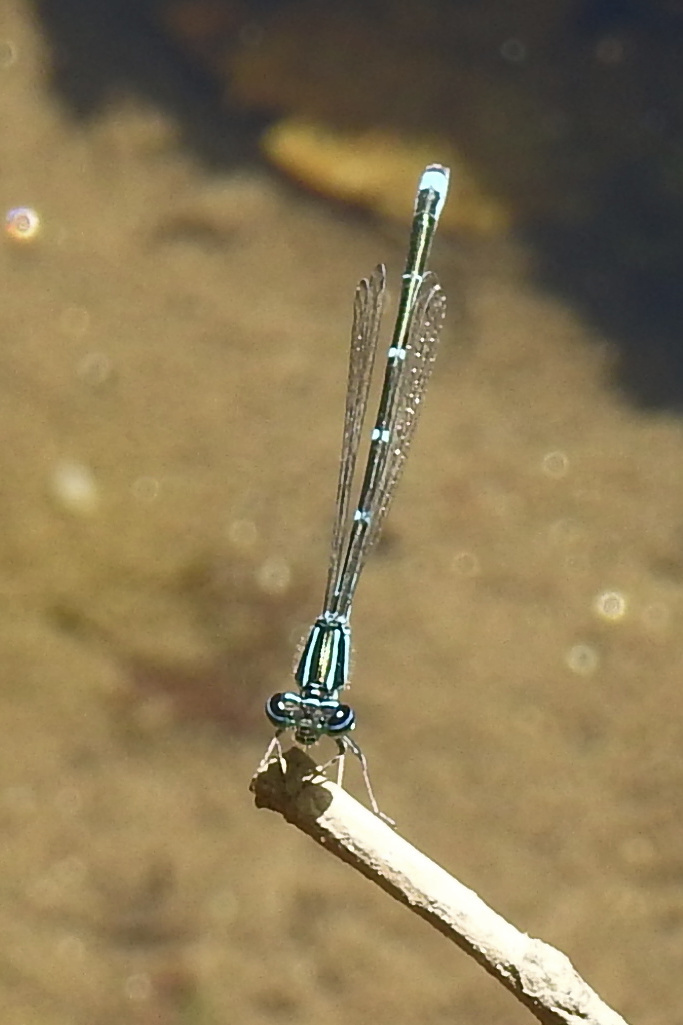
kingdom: Animalia
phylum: Arthropoda
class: Insecta
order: Odonata
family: Coenagrionidae
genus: Enallagma
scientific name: Enallagma exsulans
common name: Stream bluet
